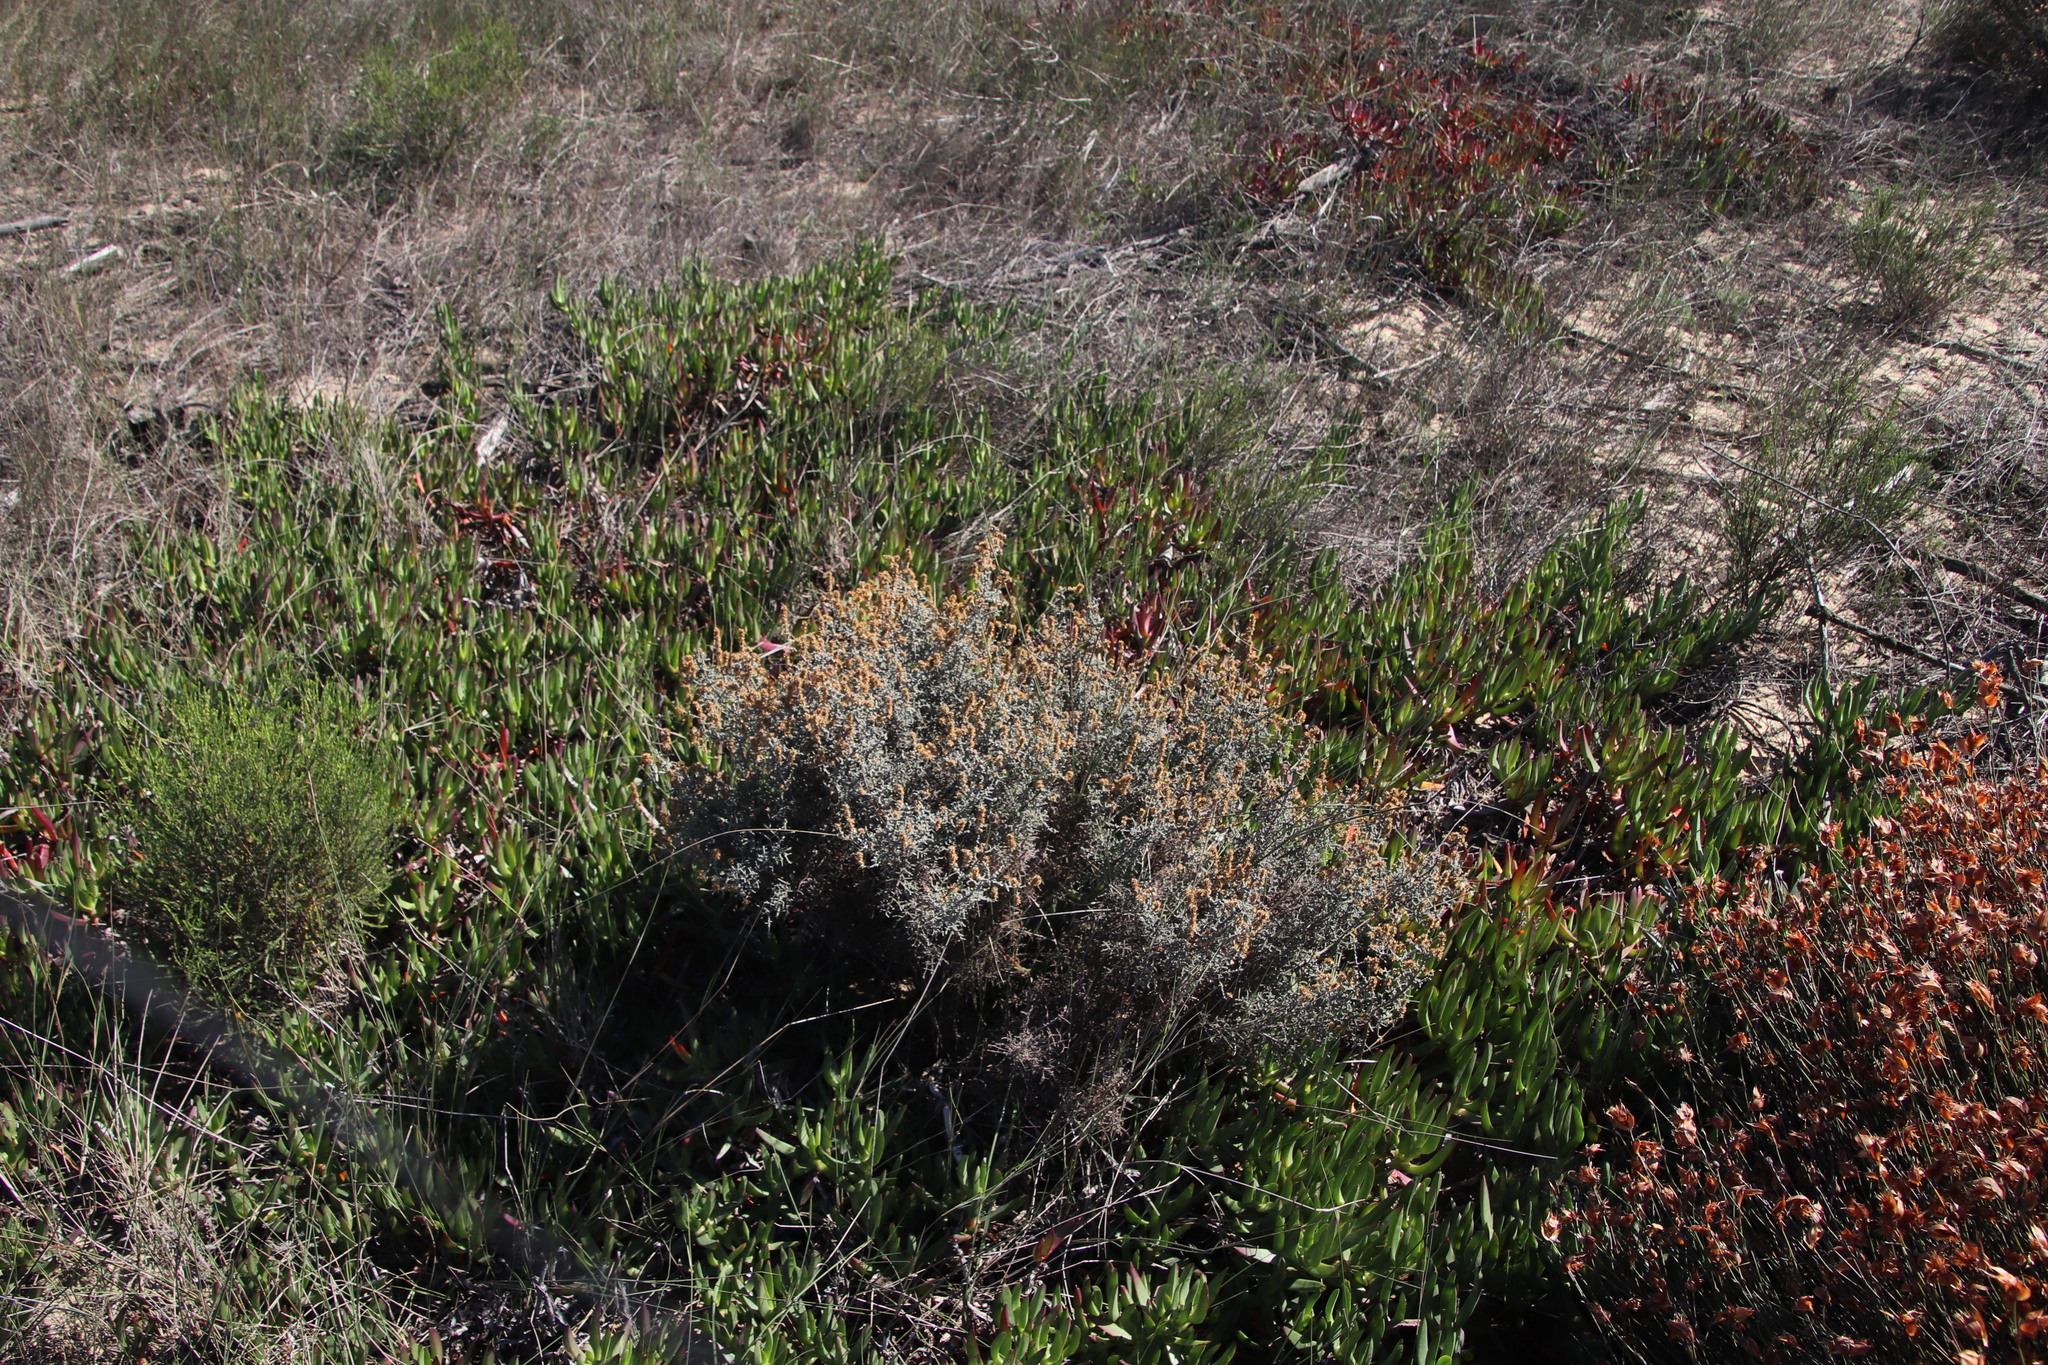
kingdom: Plantae
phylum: Tracheophyta
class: Magnoliopsida
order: Asterales
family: Asteraceae
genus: Seriphium
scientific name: Seriphium cinereum
